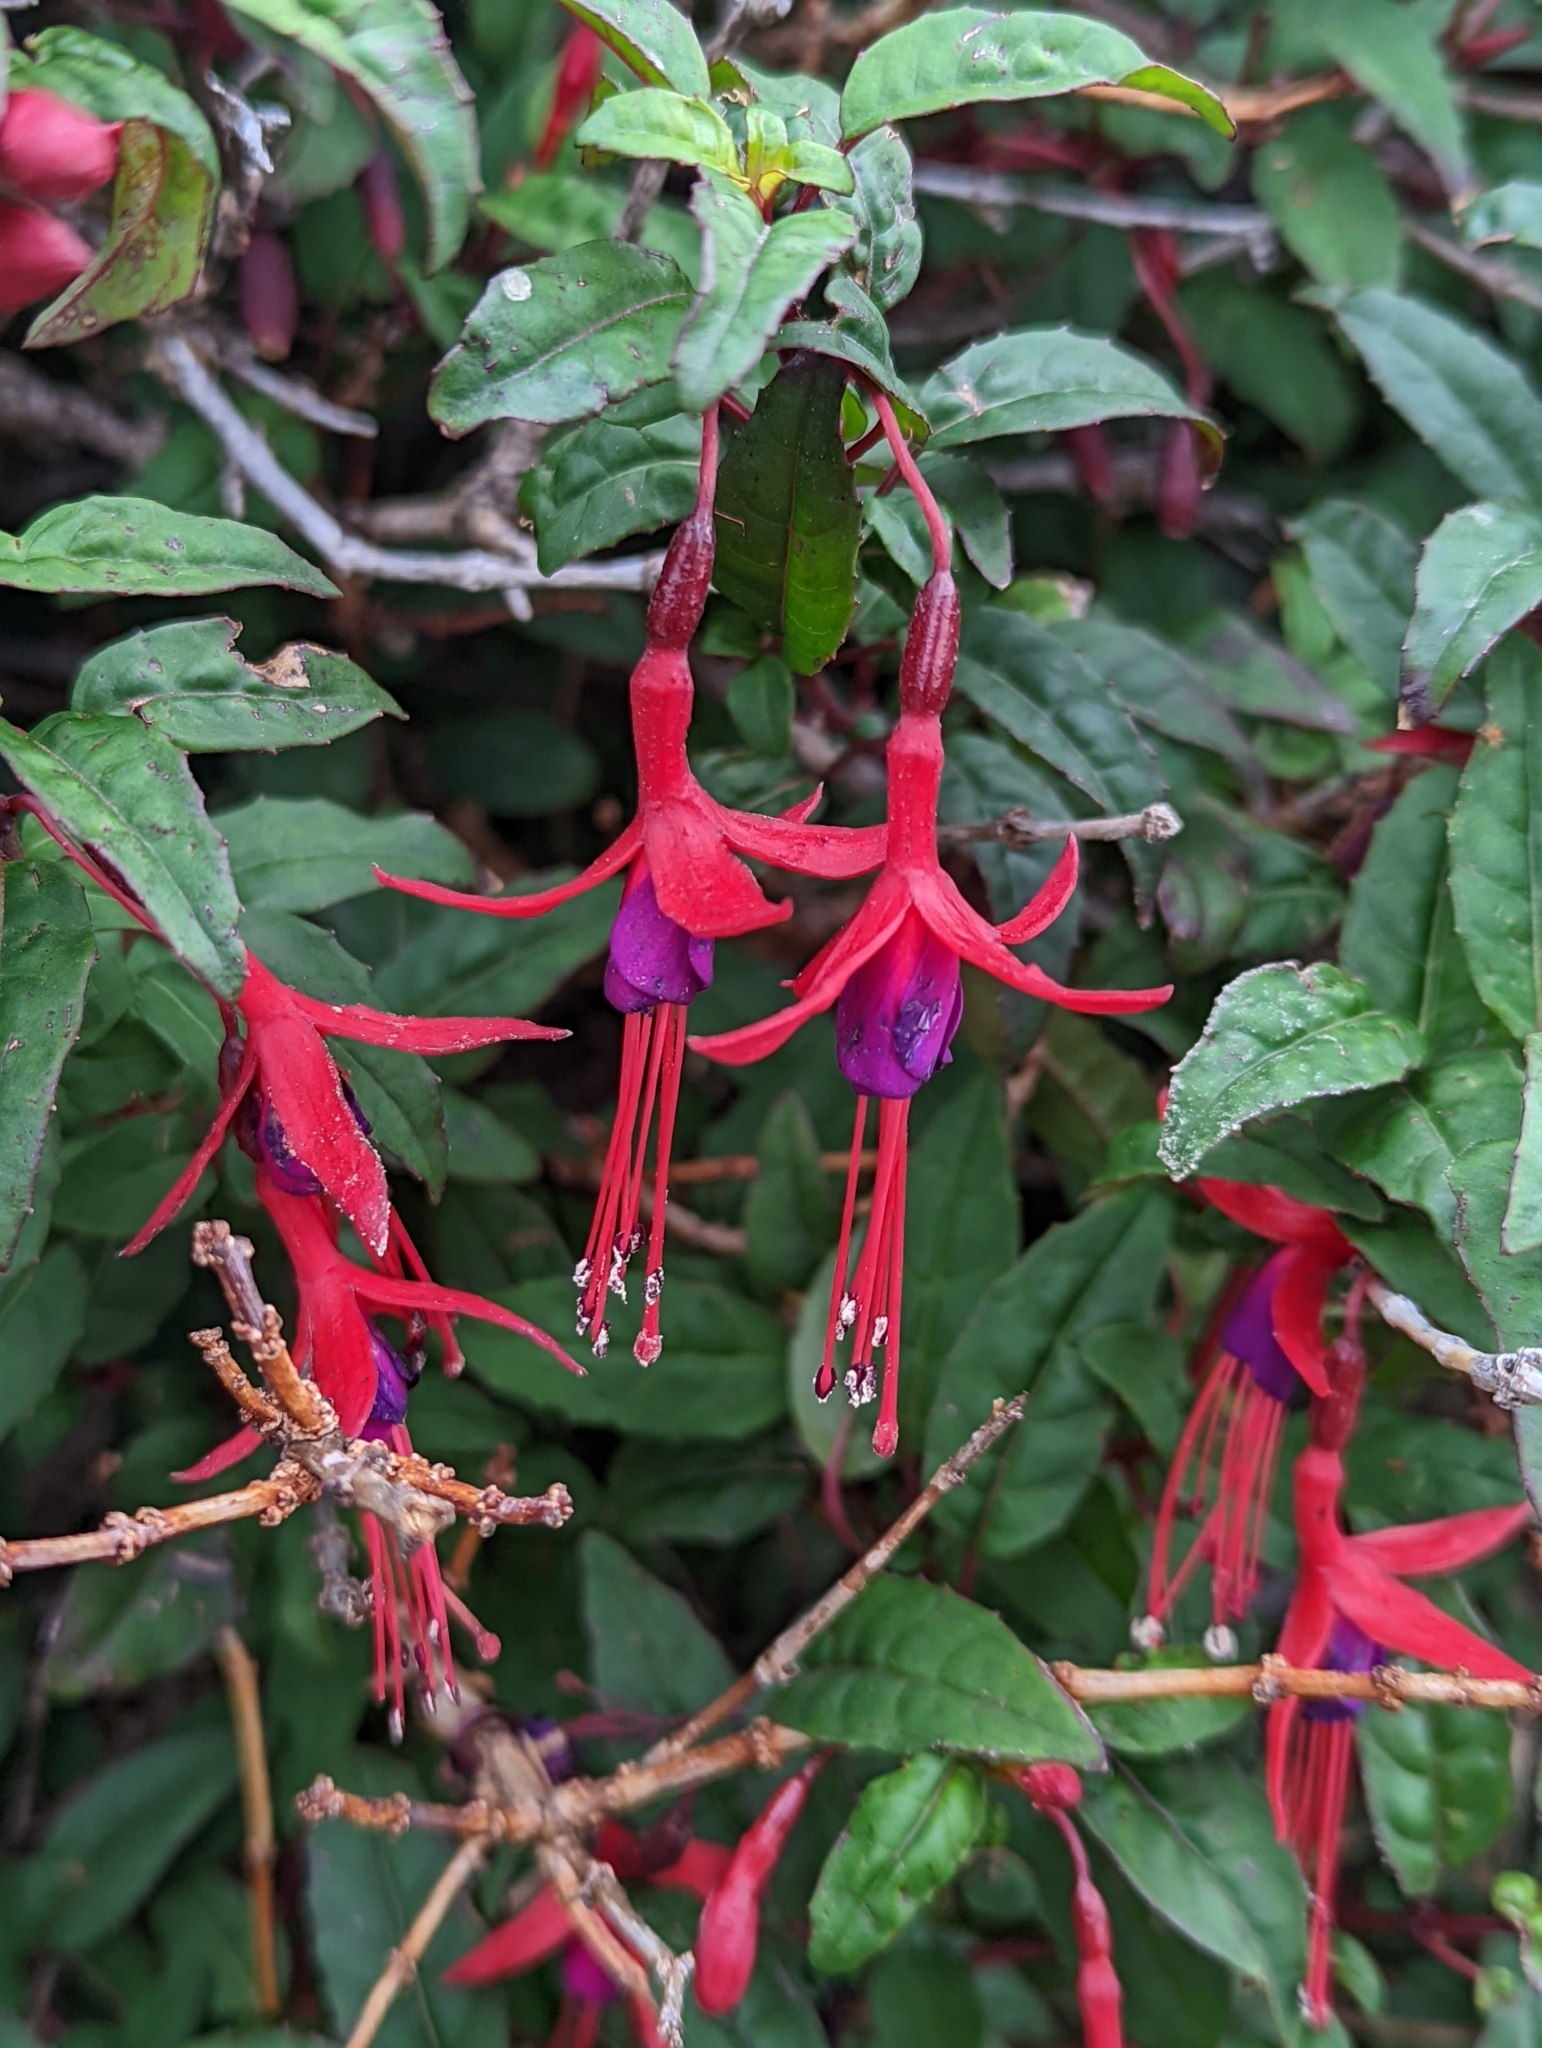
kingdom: Plantae
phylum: Tracheophyta
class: Magnoliopsida
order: Myrtales
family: Onagraceae
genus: Fuchsia
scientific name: Fuchsia magellanica
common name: Hardy fuchsia
